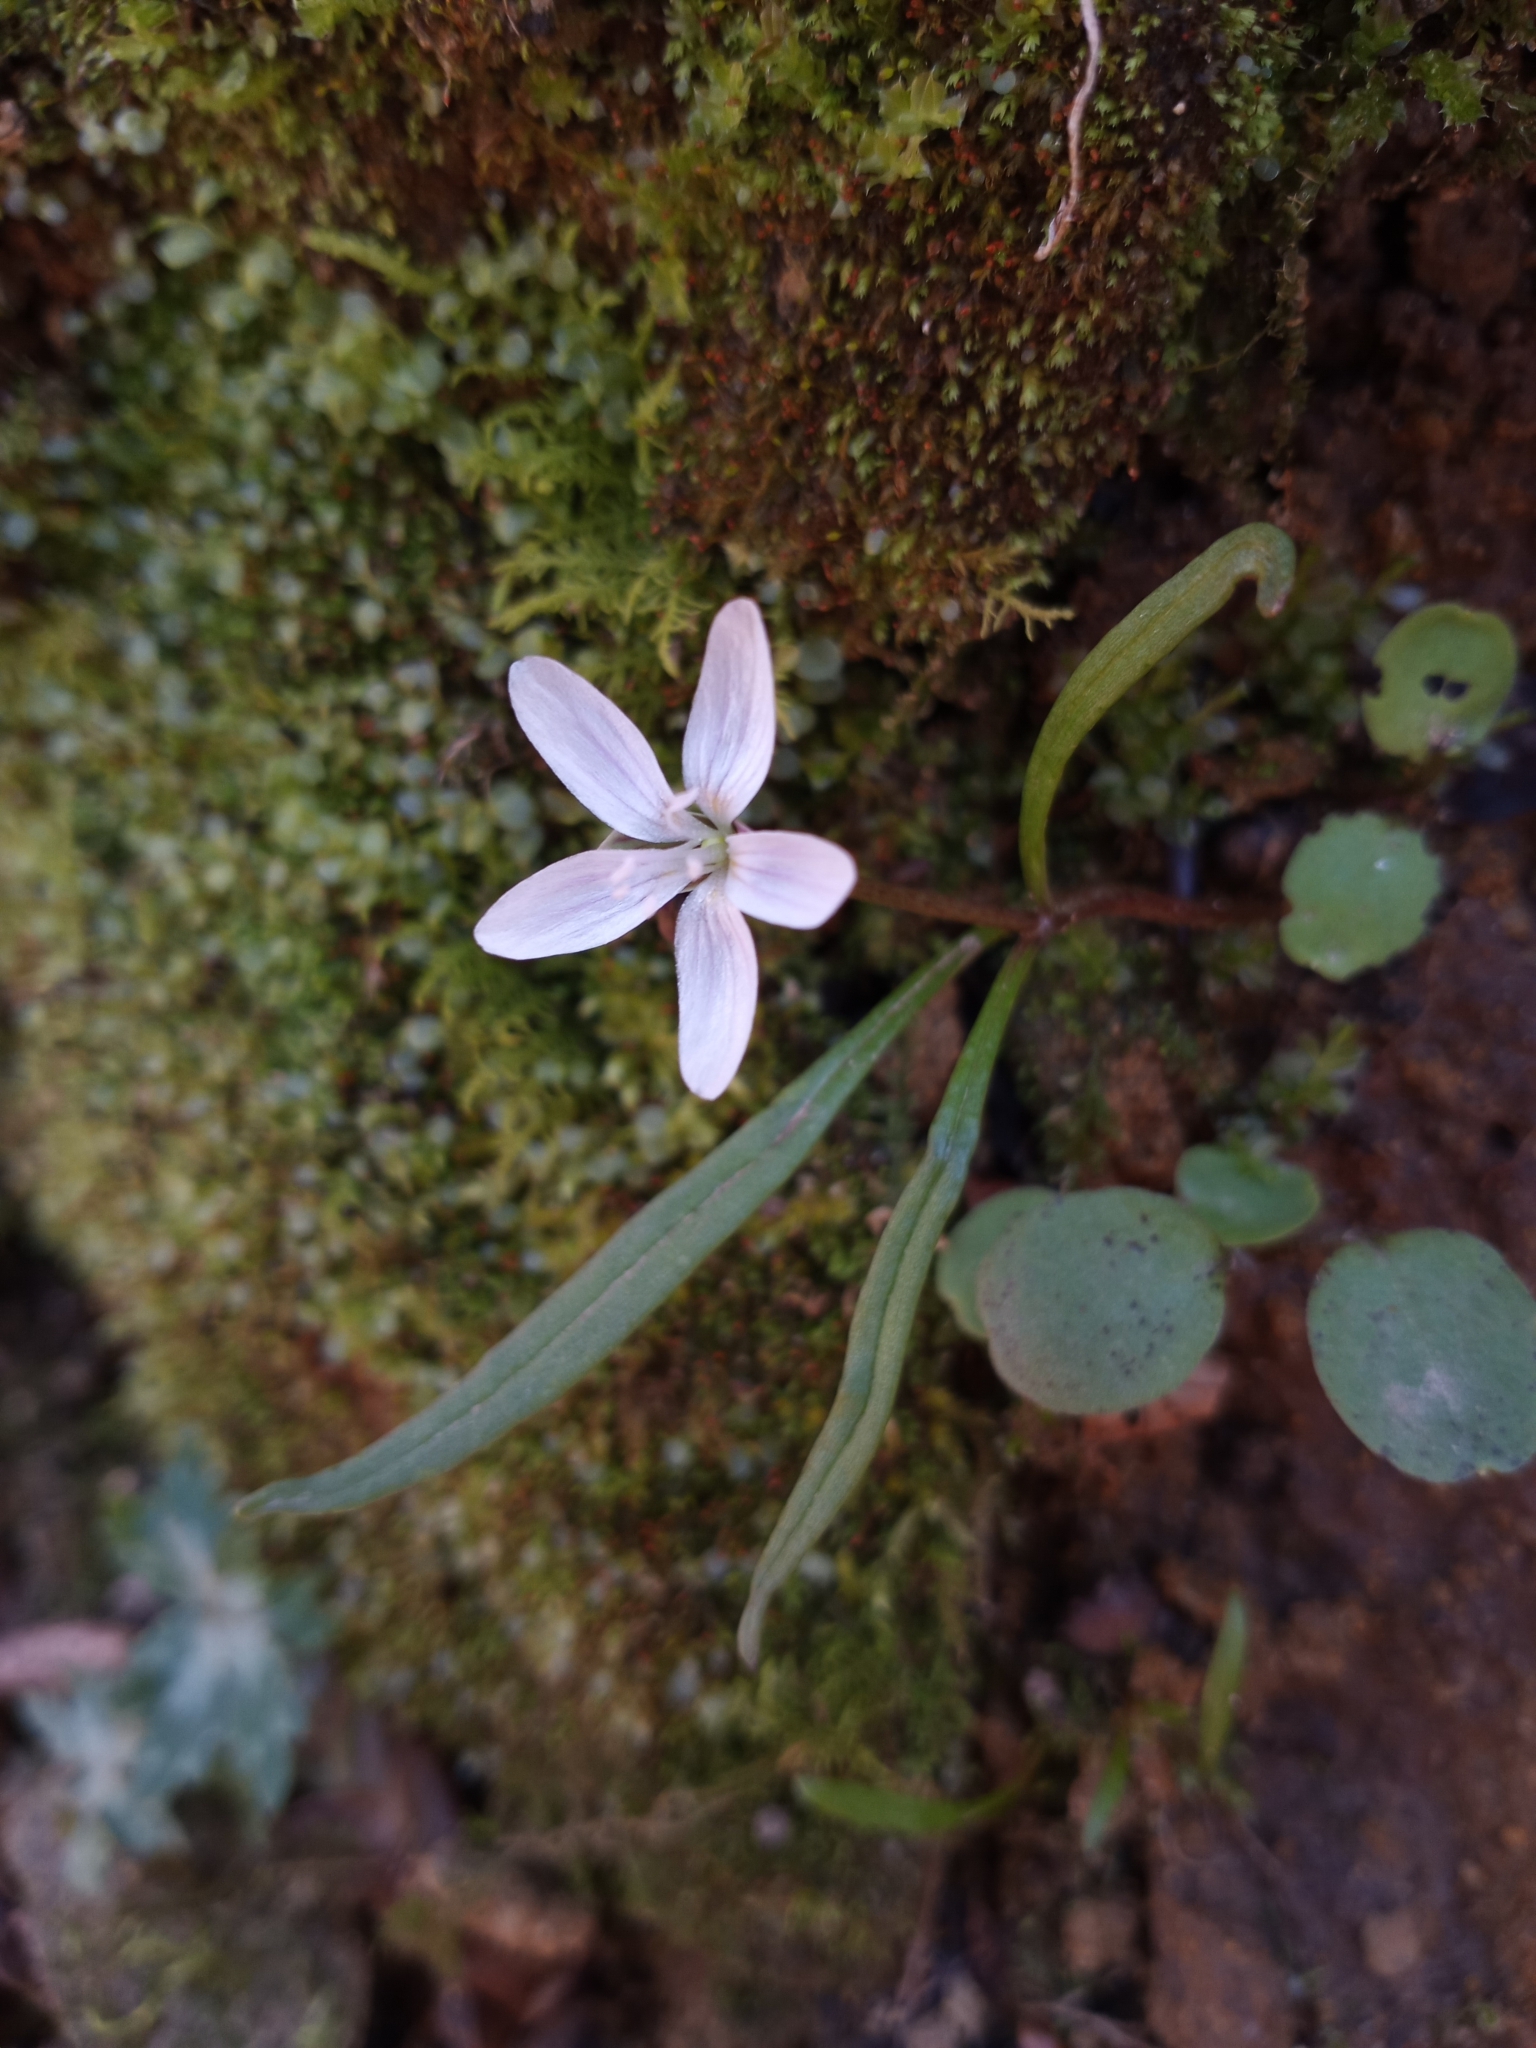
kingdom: Plantae
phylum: Tracheophyta
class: Magnoliopsida
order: Caryophyllales
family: Montiaceae
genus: Claytonia
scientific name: Claytonia virginica
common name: Virginia springbeauty
